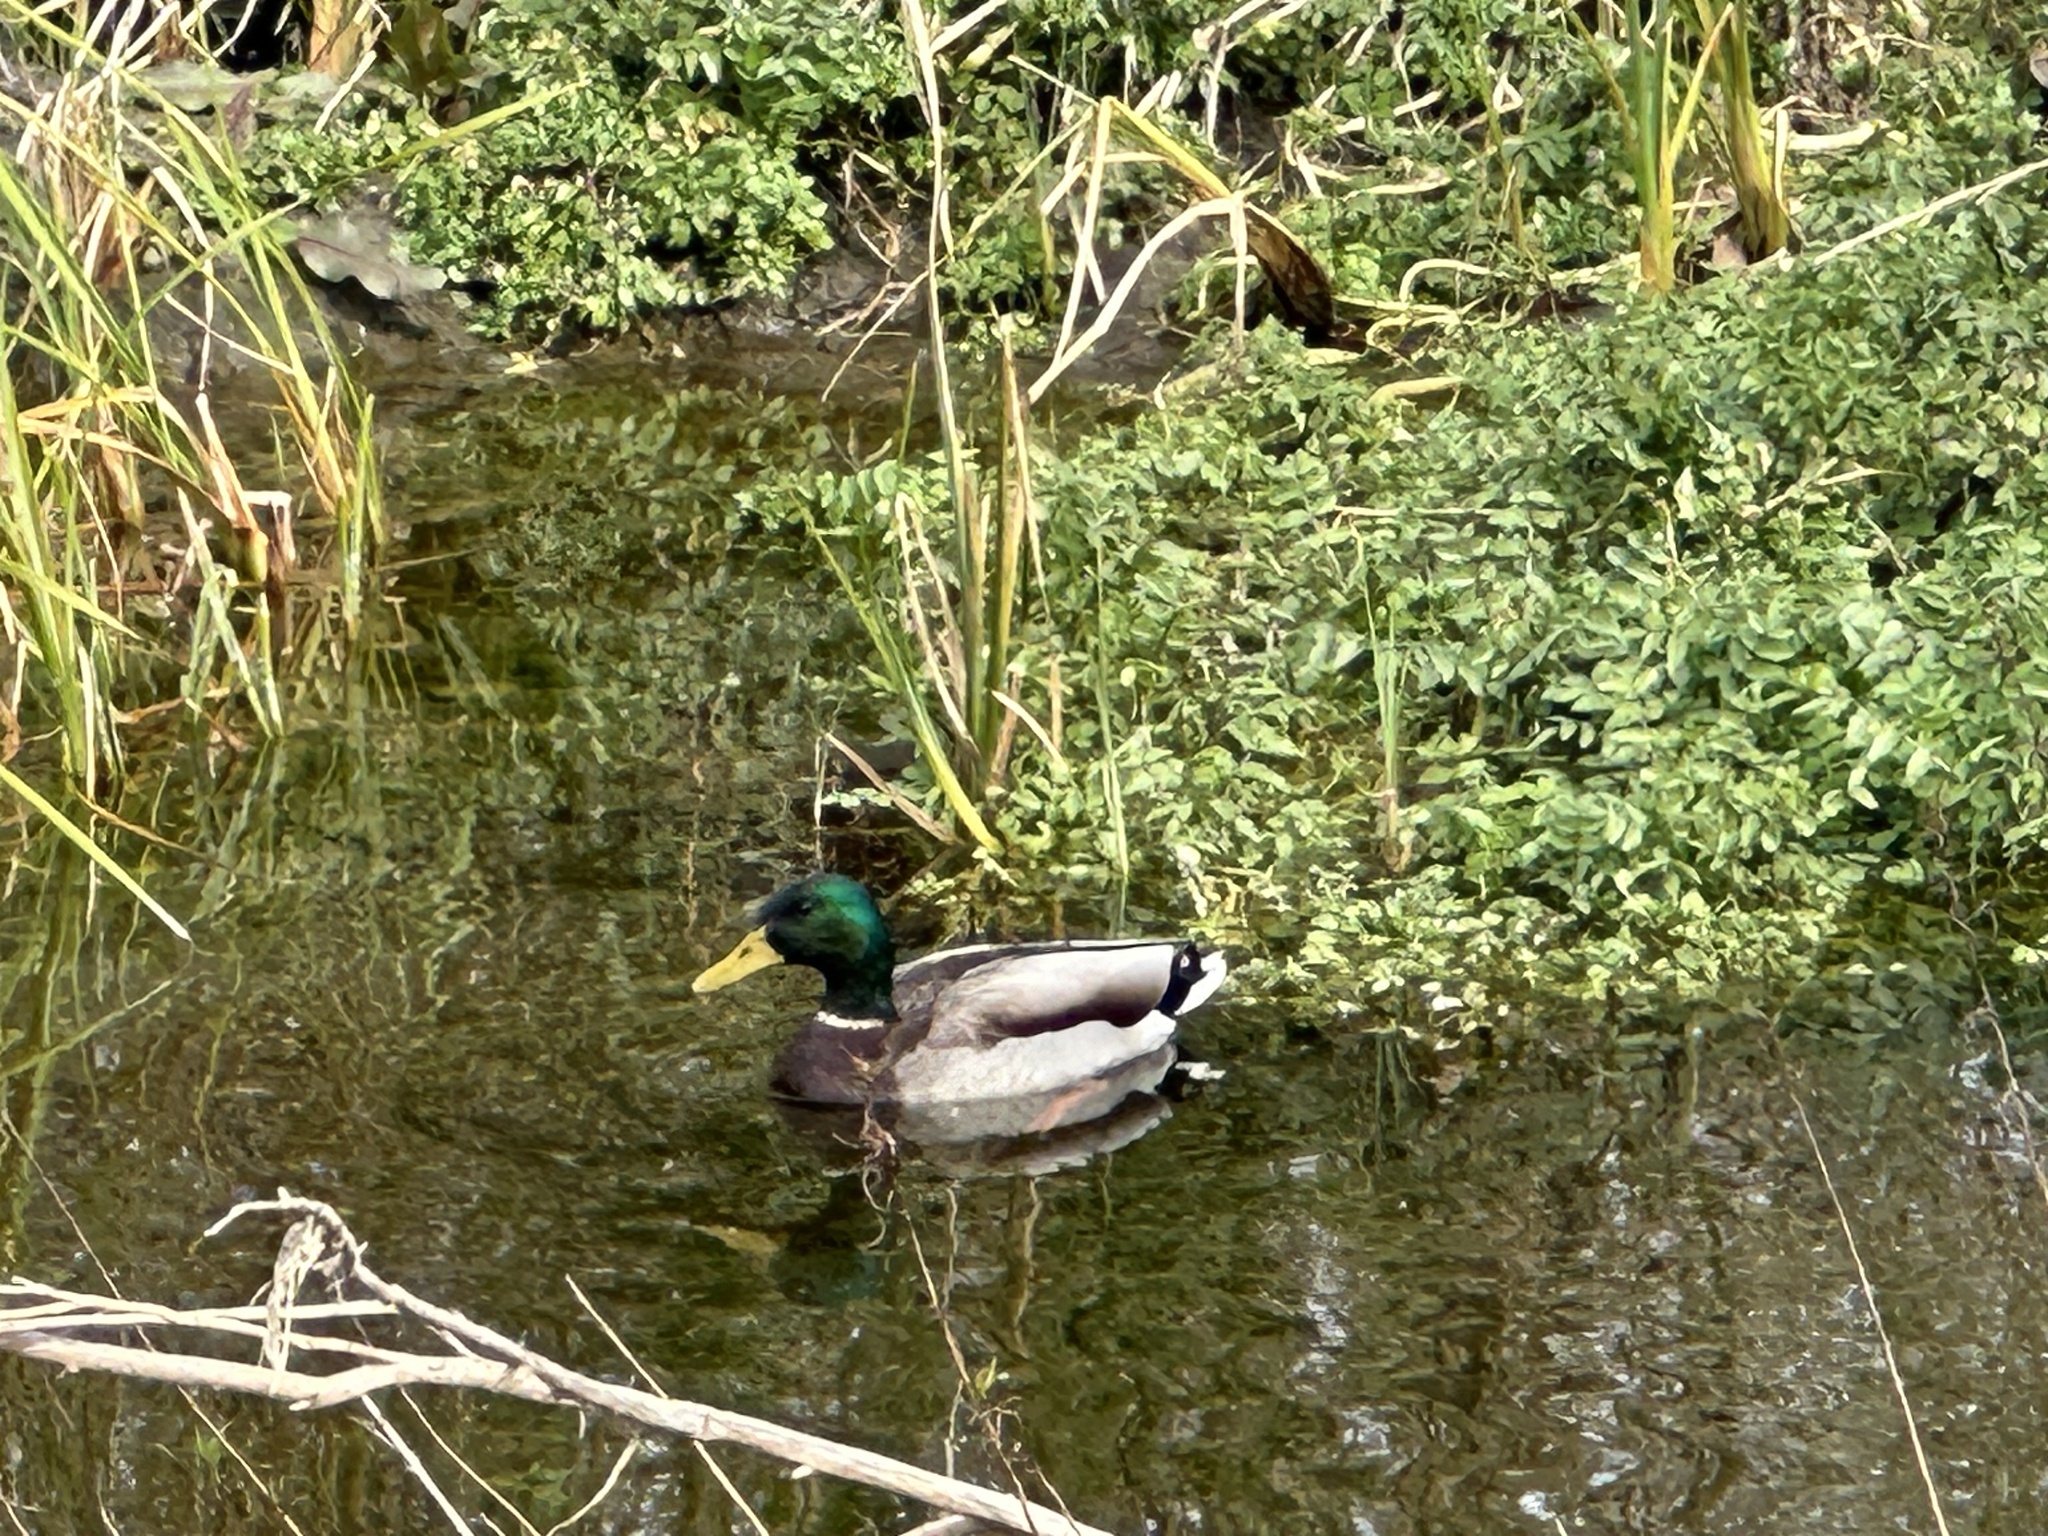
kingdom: Animalia
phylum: Chordata
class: Aves
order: Anseriformes
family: Anatidae
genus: Anas
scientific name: Anas platyrhynchos
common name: Mallard
